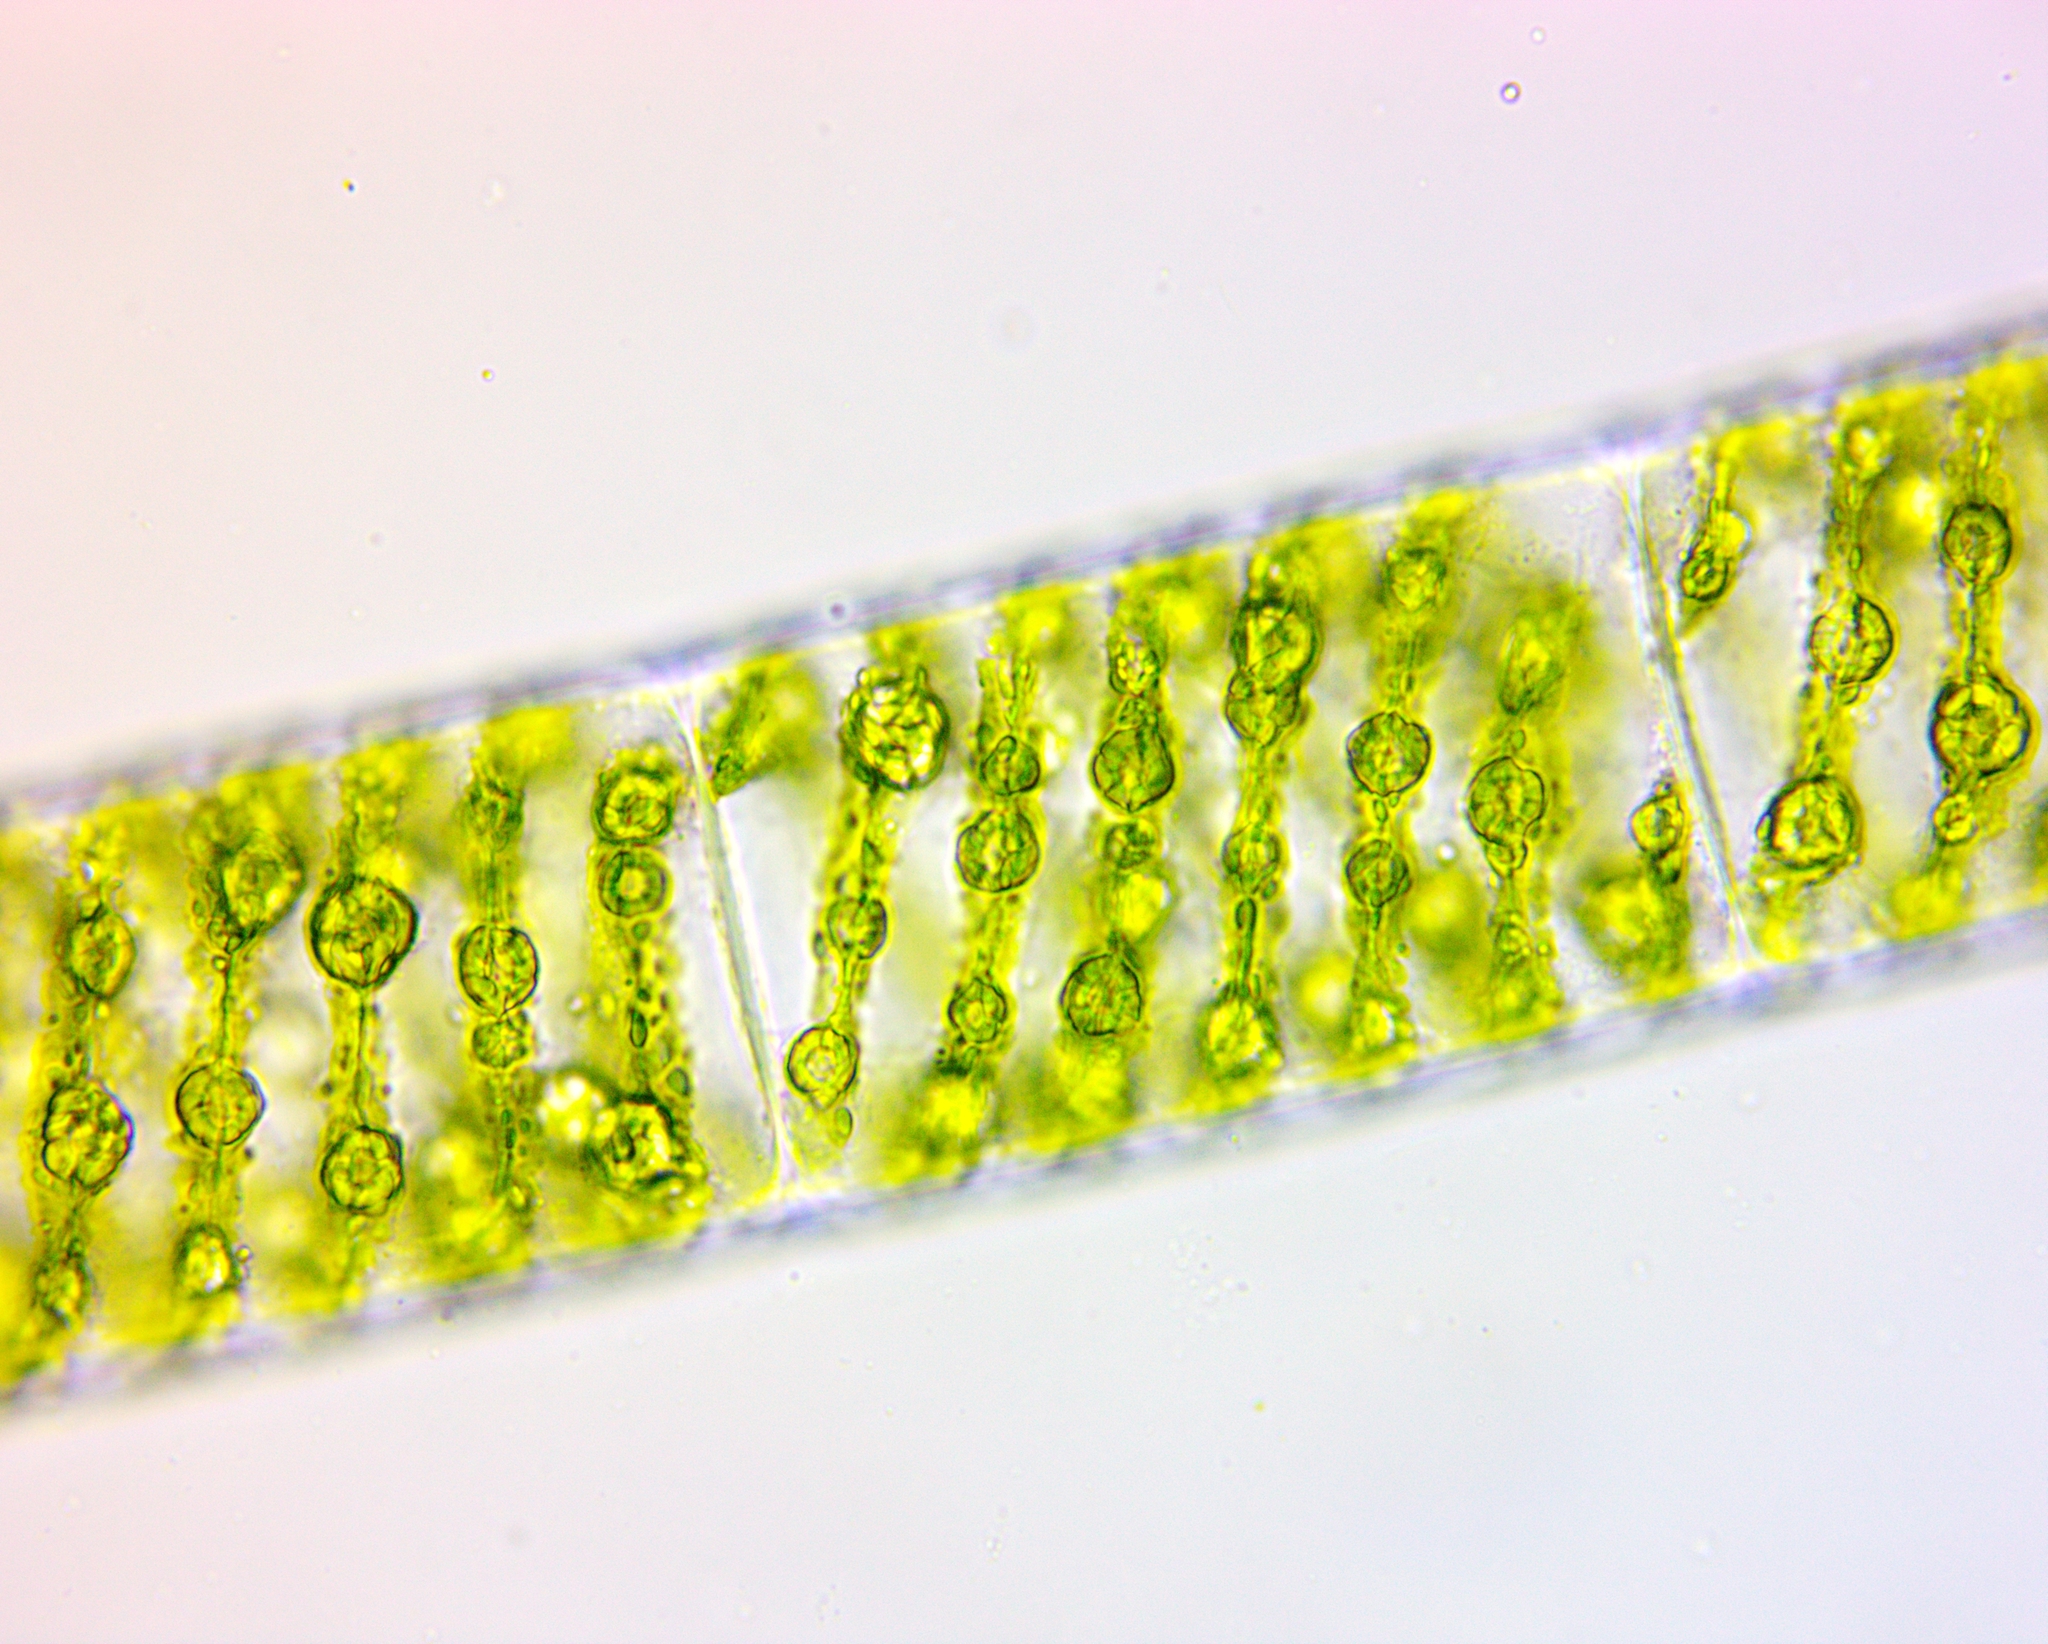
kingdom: Plantae
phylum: Charophyta
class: Zygnematophyceae
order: Zygnematales
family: Zygnemataceae
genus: Spirogyra
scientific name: Spirogyra
